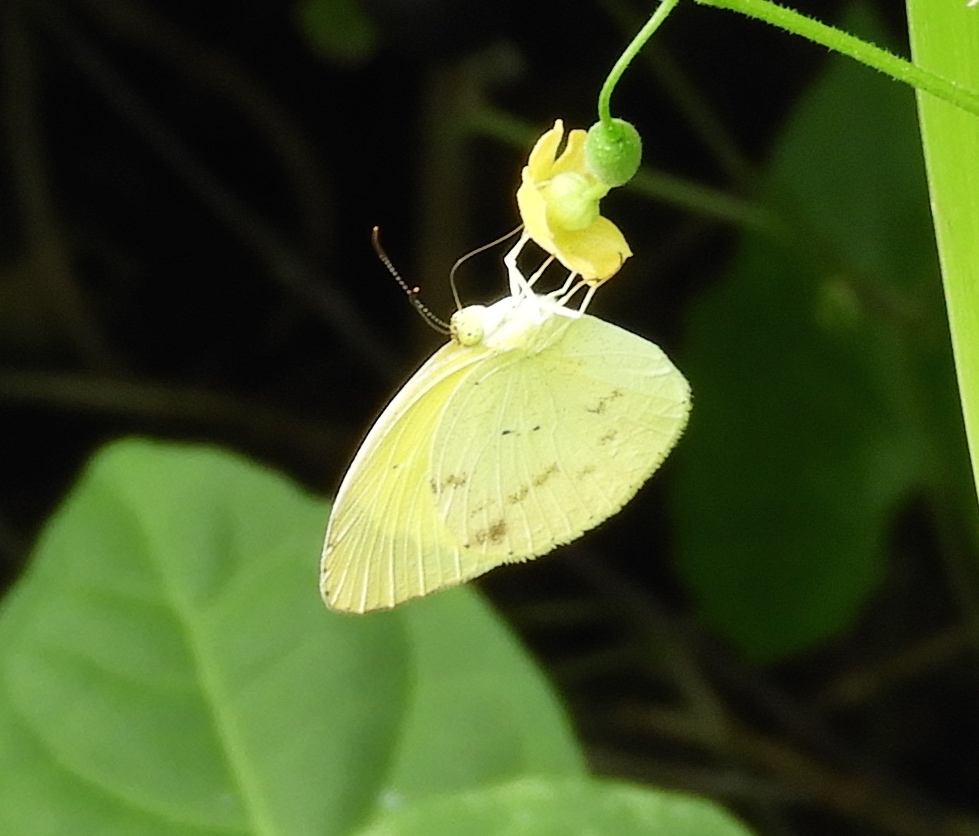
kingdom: Animalia
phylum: Arthropoda
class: Insecta
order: Lepidoptera
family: Pieridae
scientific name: Pieridae
